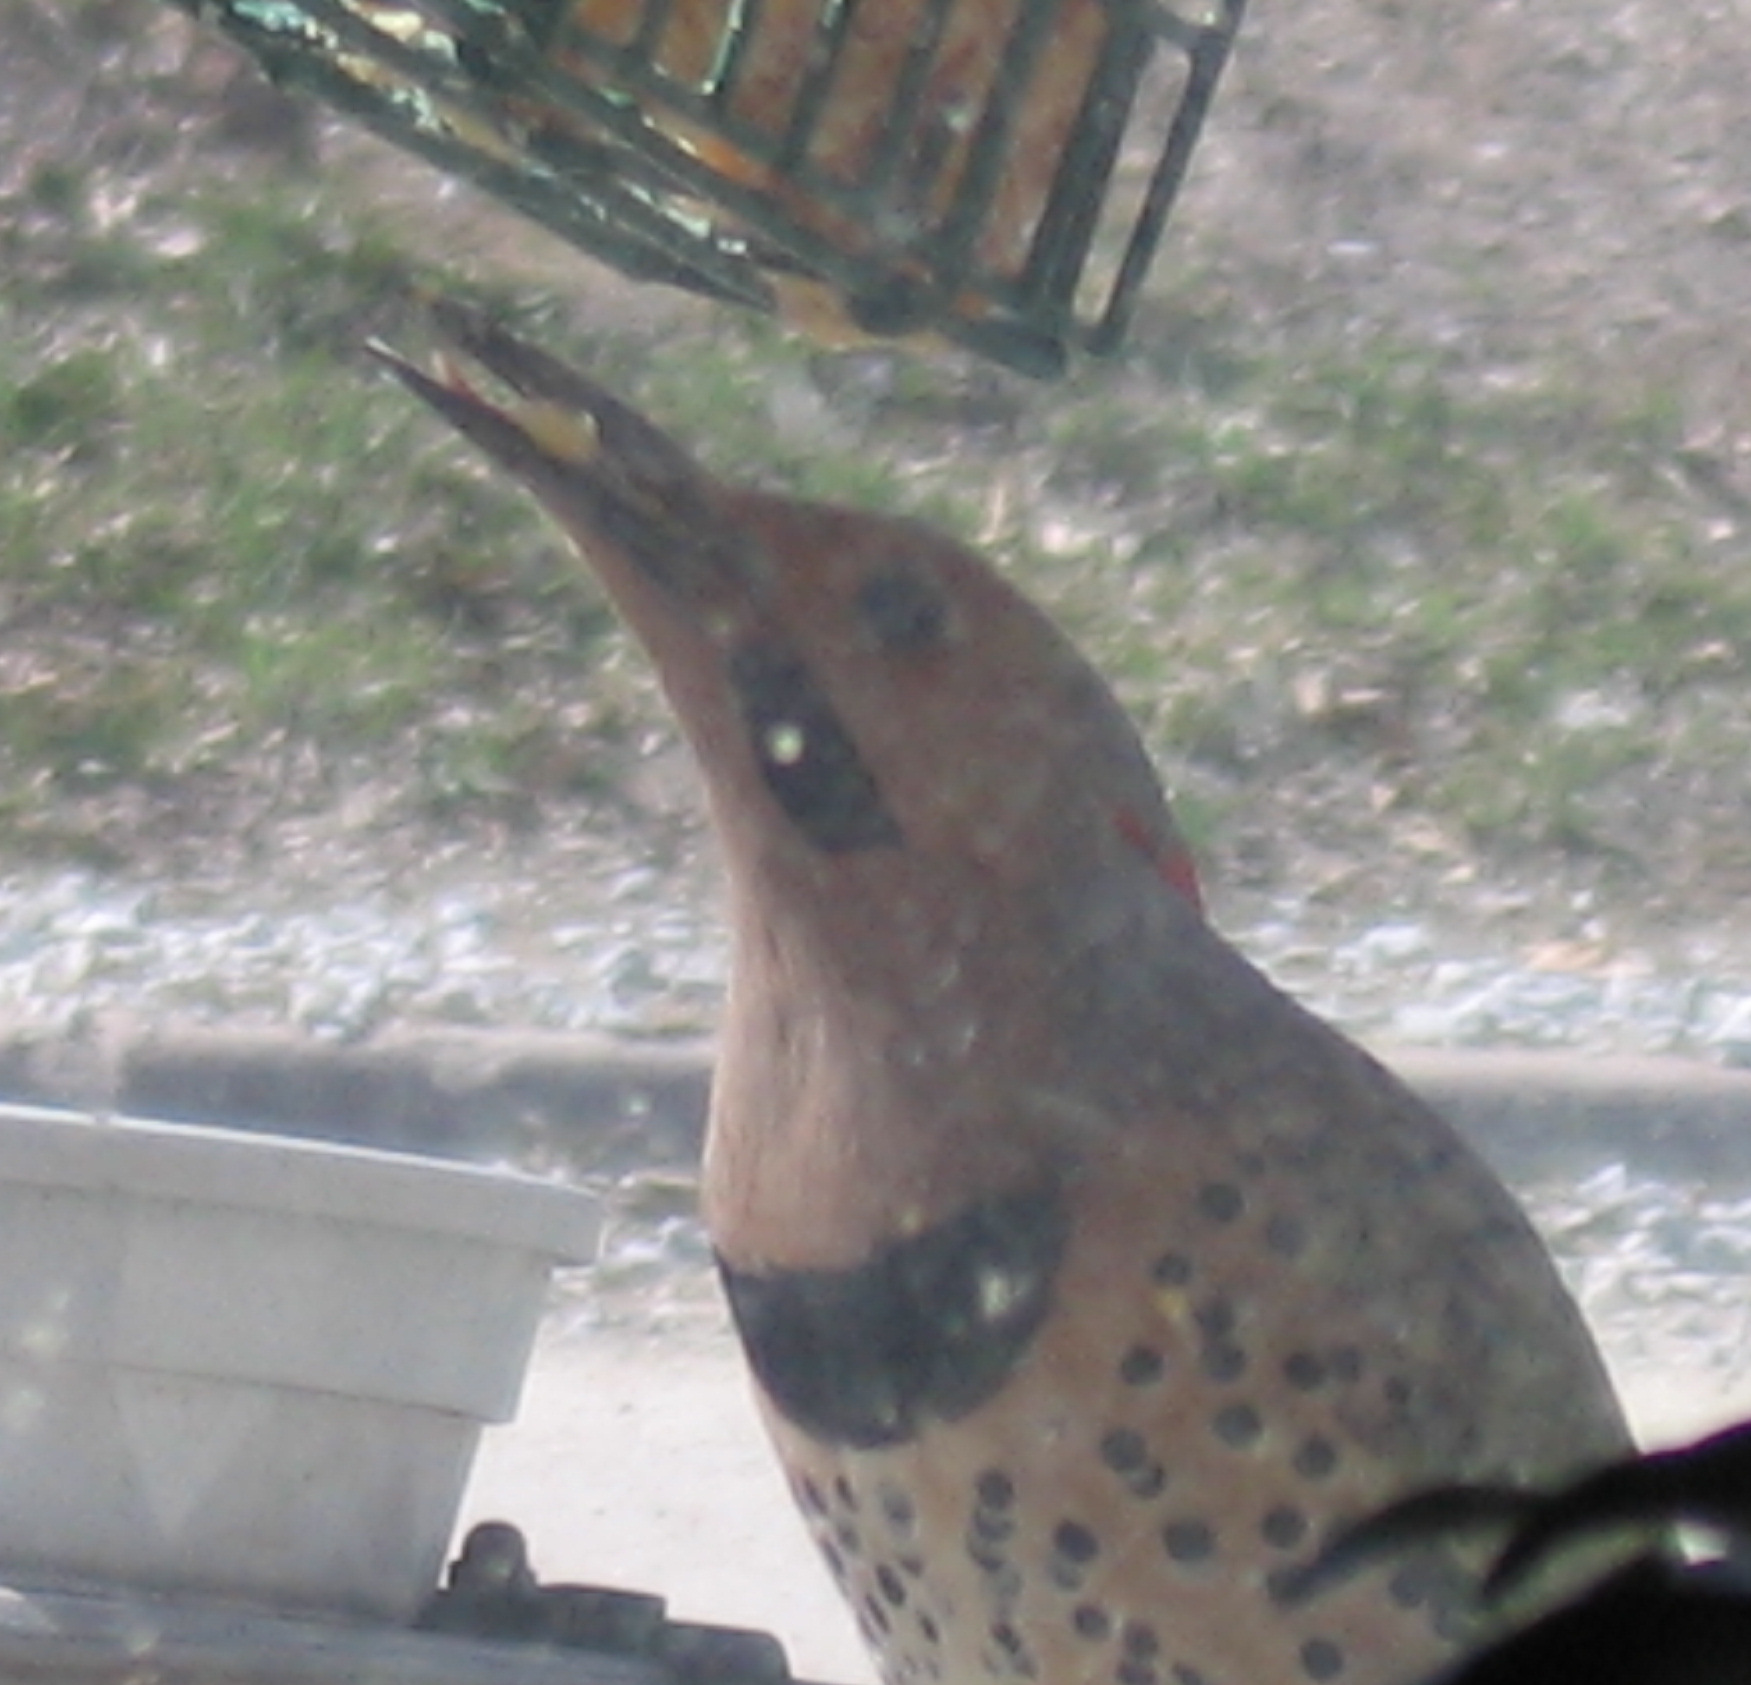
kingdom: Animalia
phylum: Chordata
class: Aves
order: Piciformes
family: Picidae
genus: Colaptes
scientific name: Colaptes auratus
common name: Northern flicker
